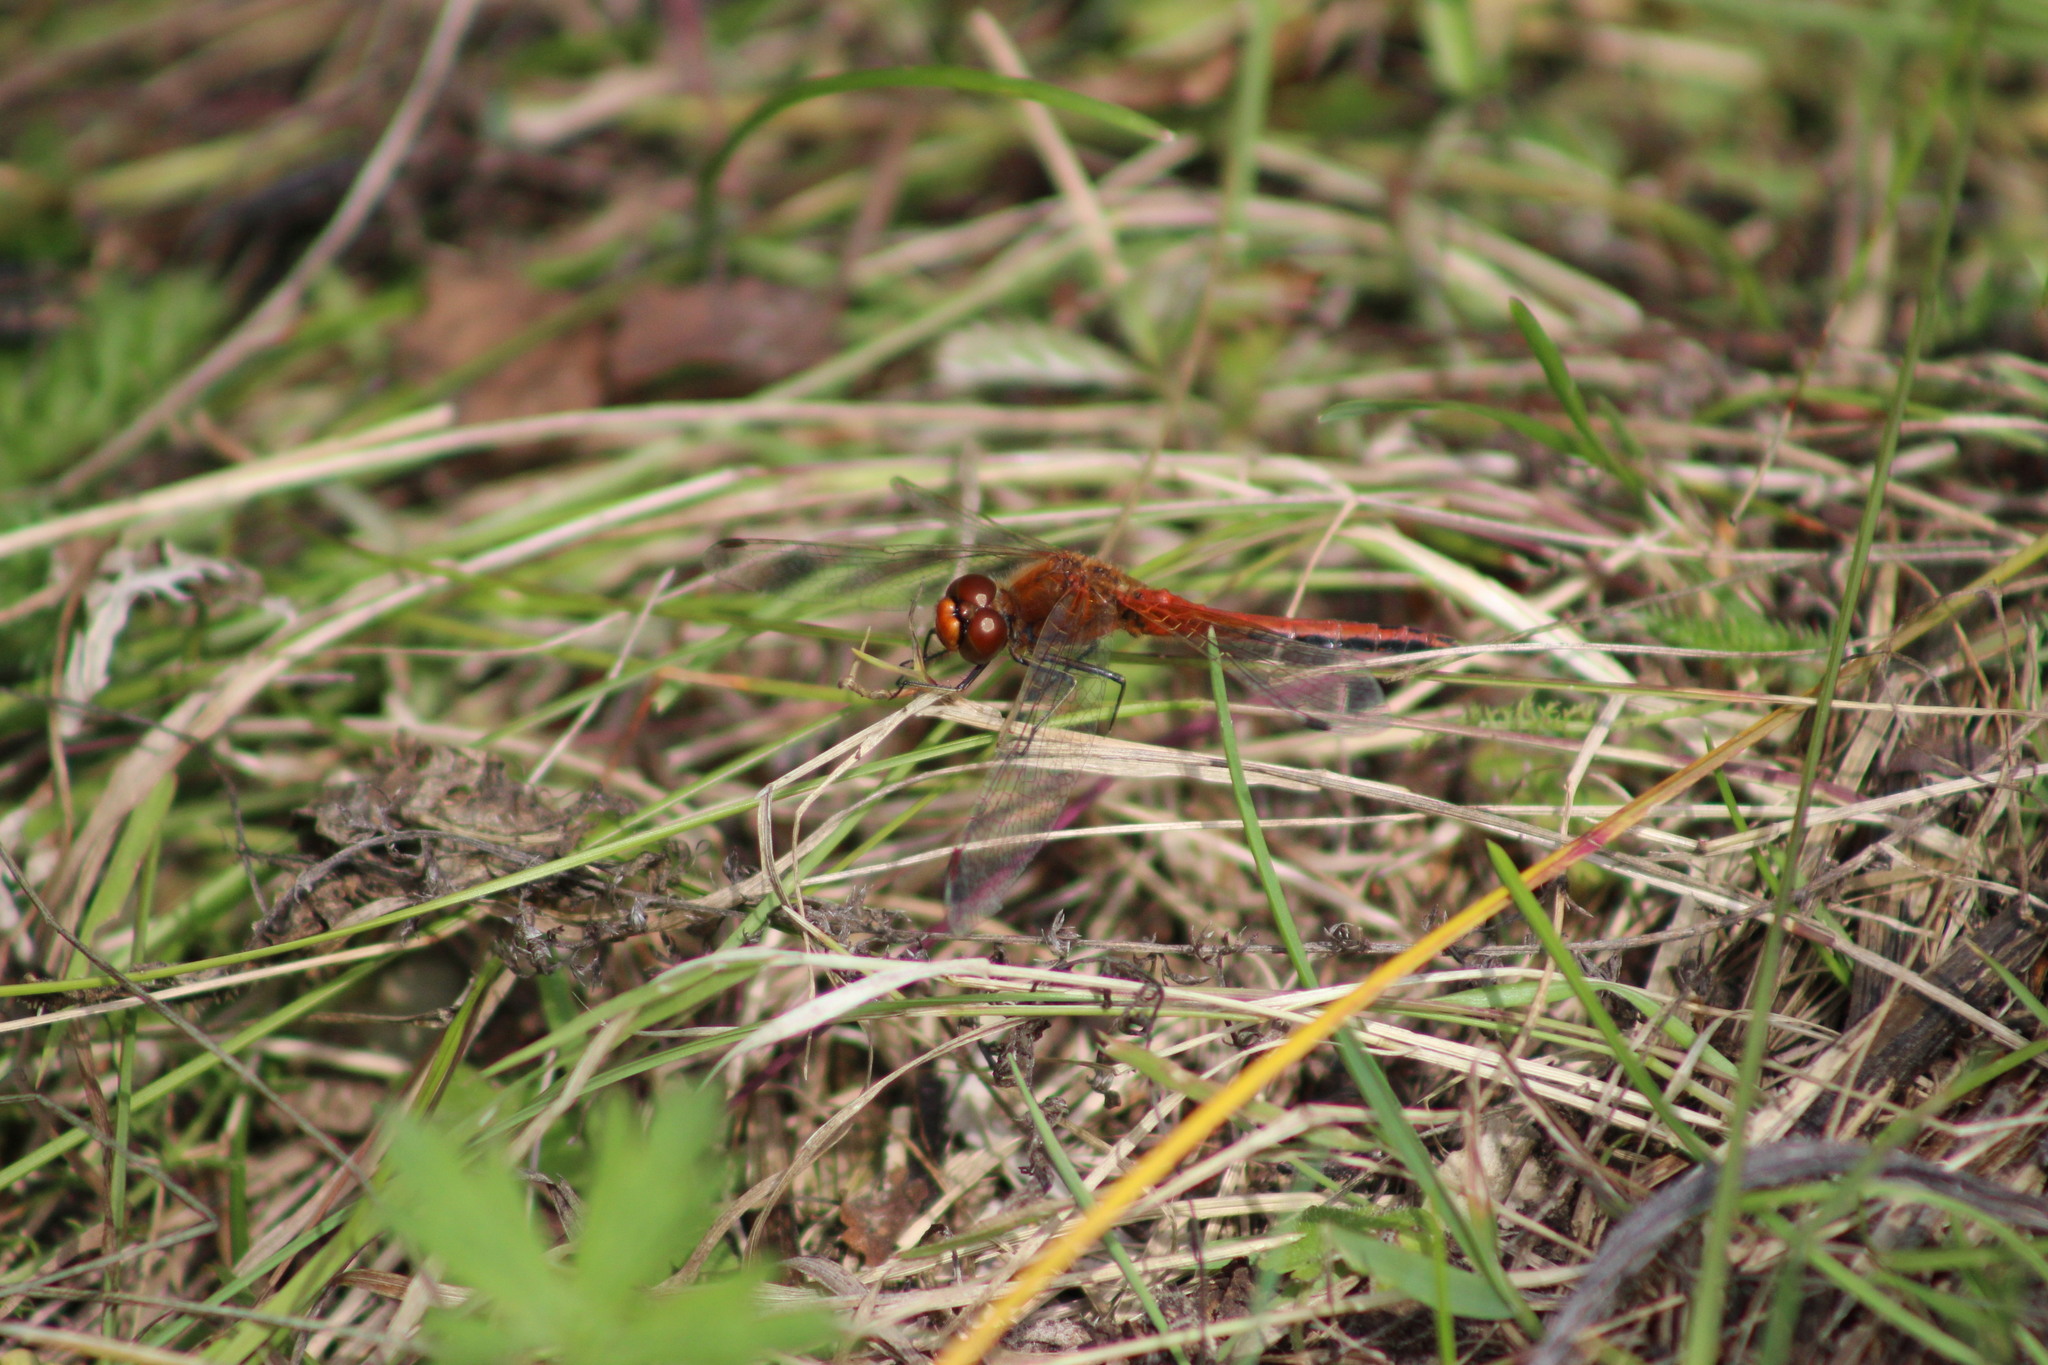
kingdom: Animalia
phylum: Arthropoda
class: Insecta
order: Odonata
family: Libellulidae
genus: Sympetrum
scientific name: Sympetrum flaveolum
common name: Yellow-winged darter
